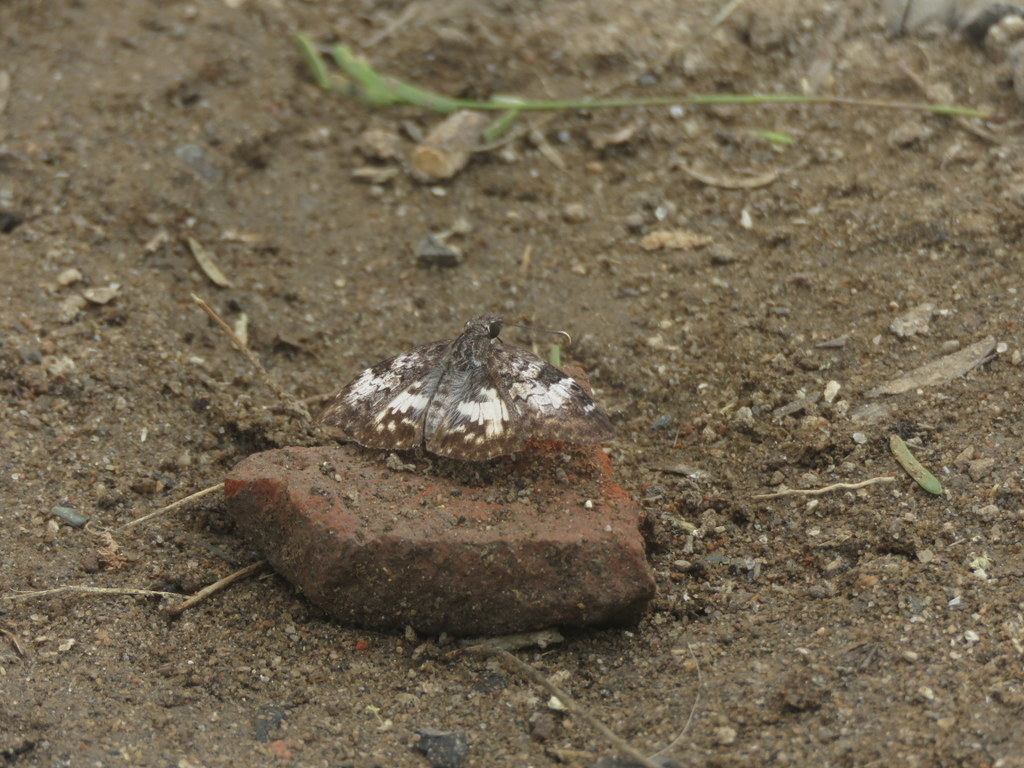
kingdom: Animalia
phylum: Arthropoda
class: Insecta
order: Lepidoptera
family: Hesperiidae
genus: Chiomara
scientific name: Chiomara asychis
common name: White-patterned skipper
